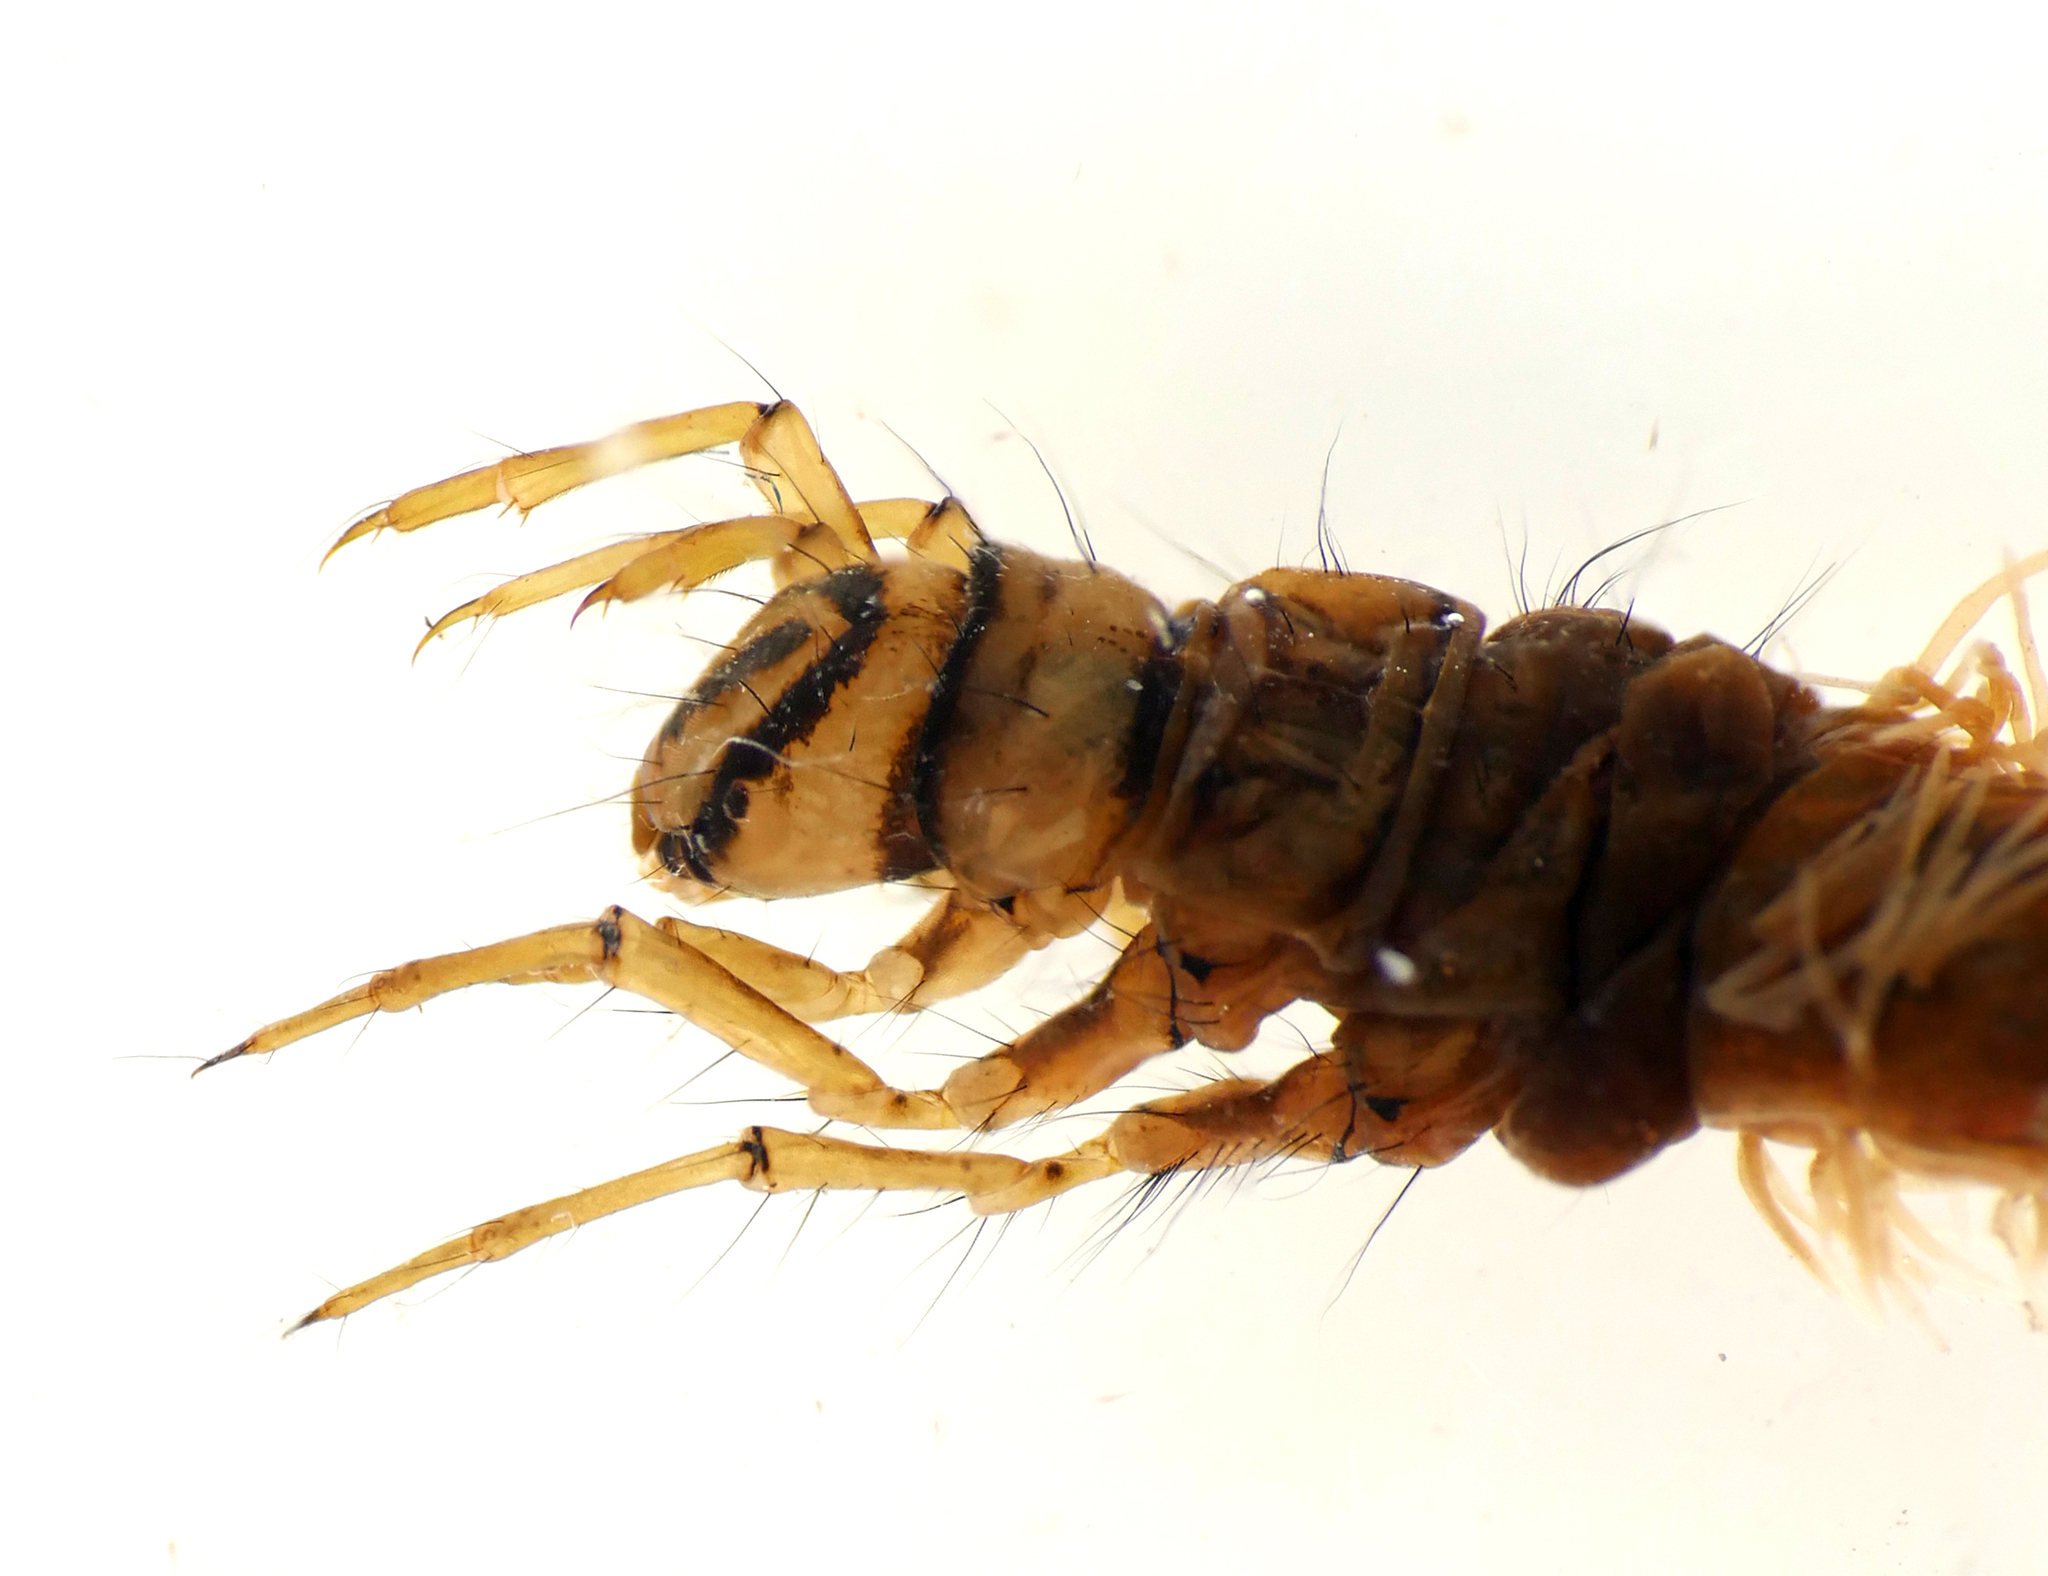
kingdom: Animalia
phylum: Arthropoda
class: Insecta
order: Trichoptera
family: Limnephilidae
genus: Nemotaulius
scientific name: Nemotaulius punctatolineatus
